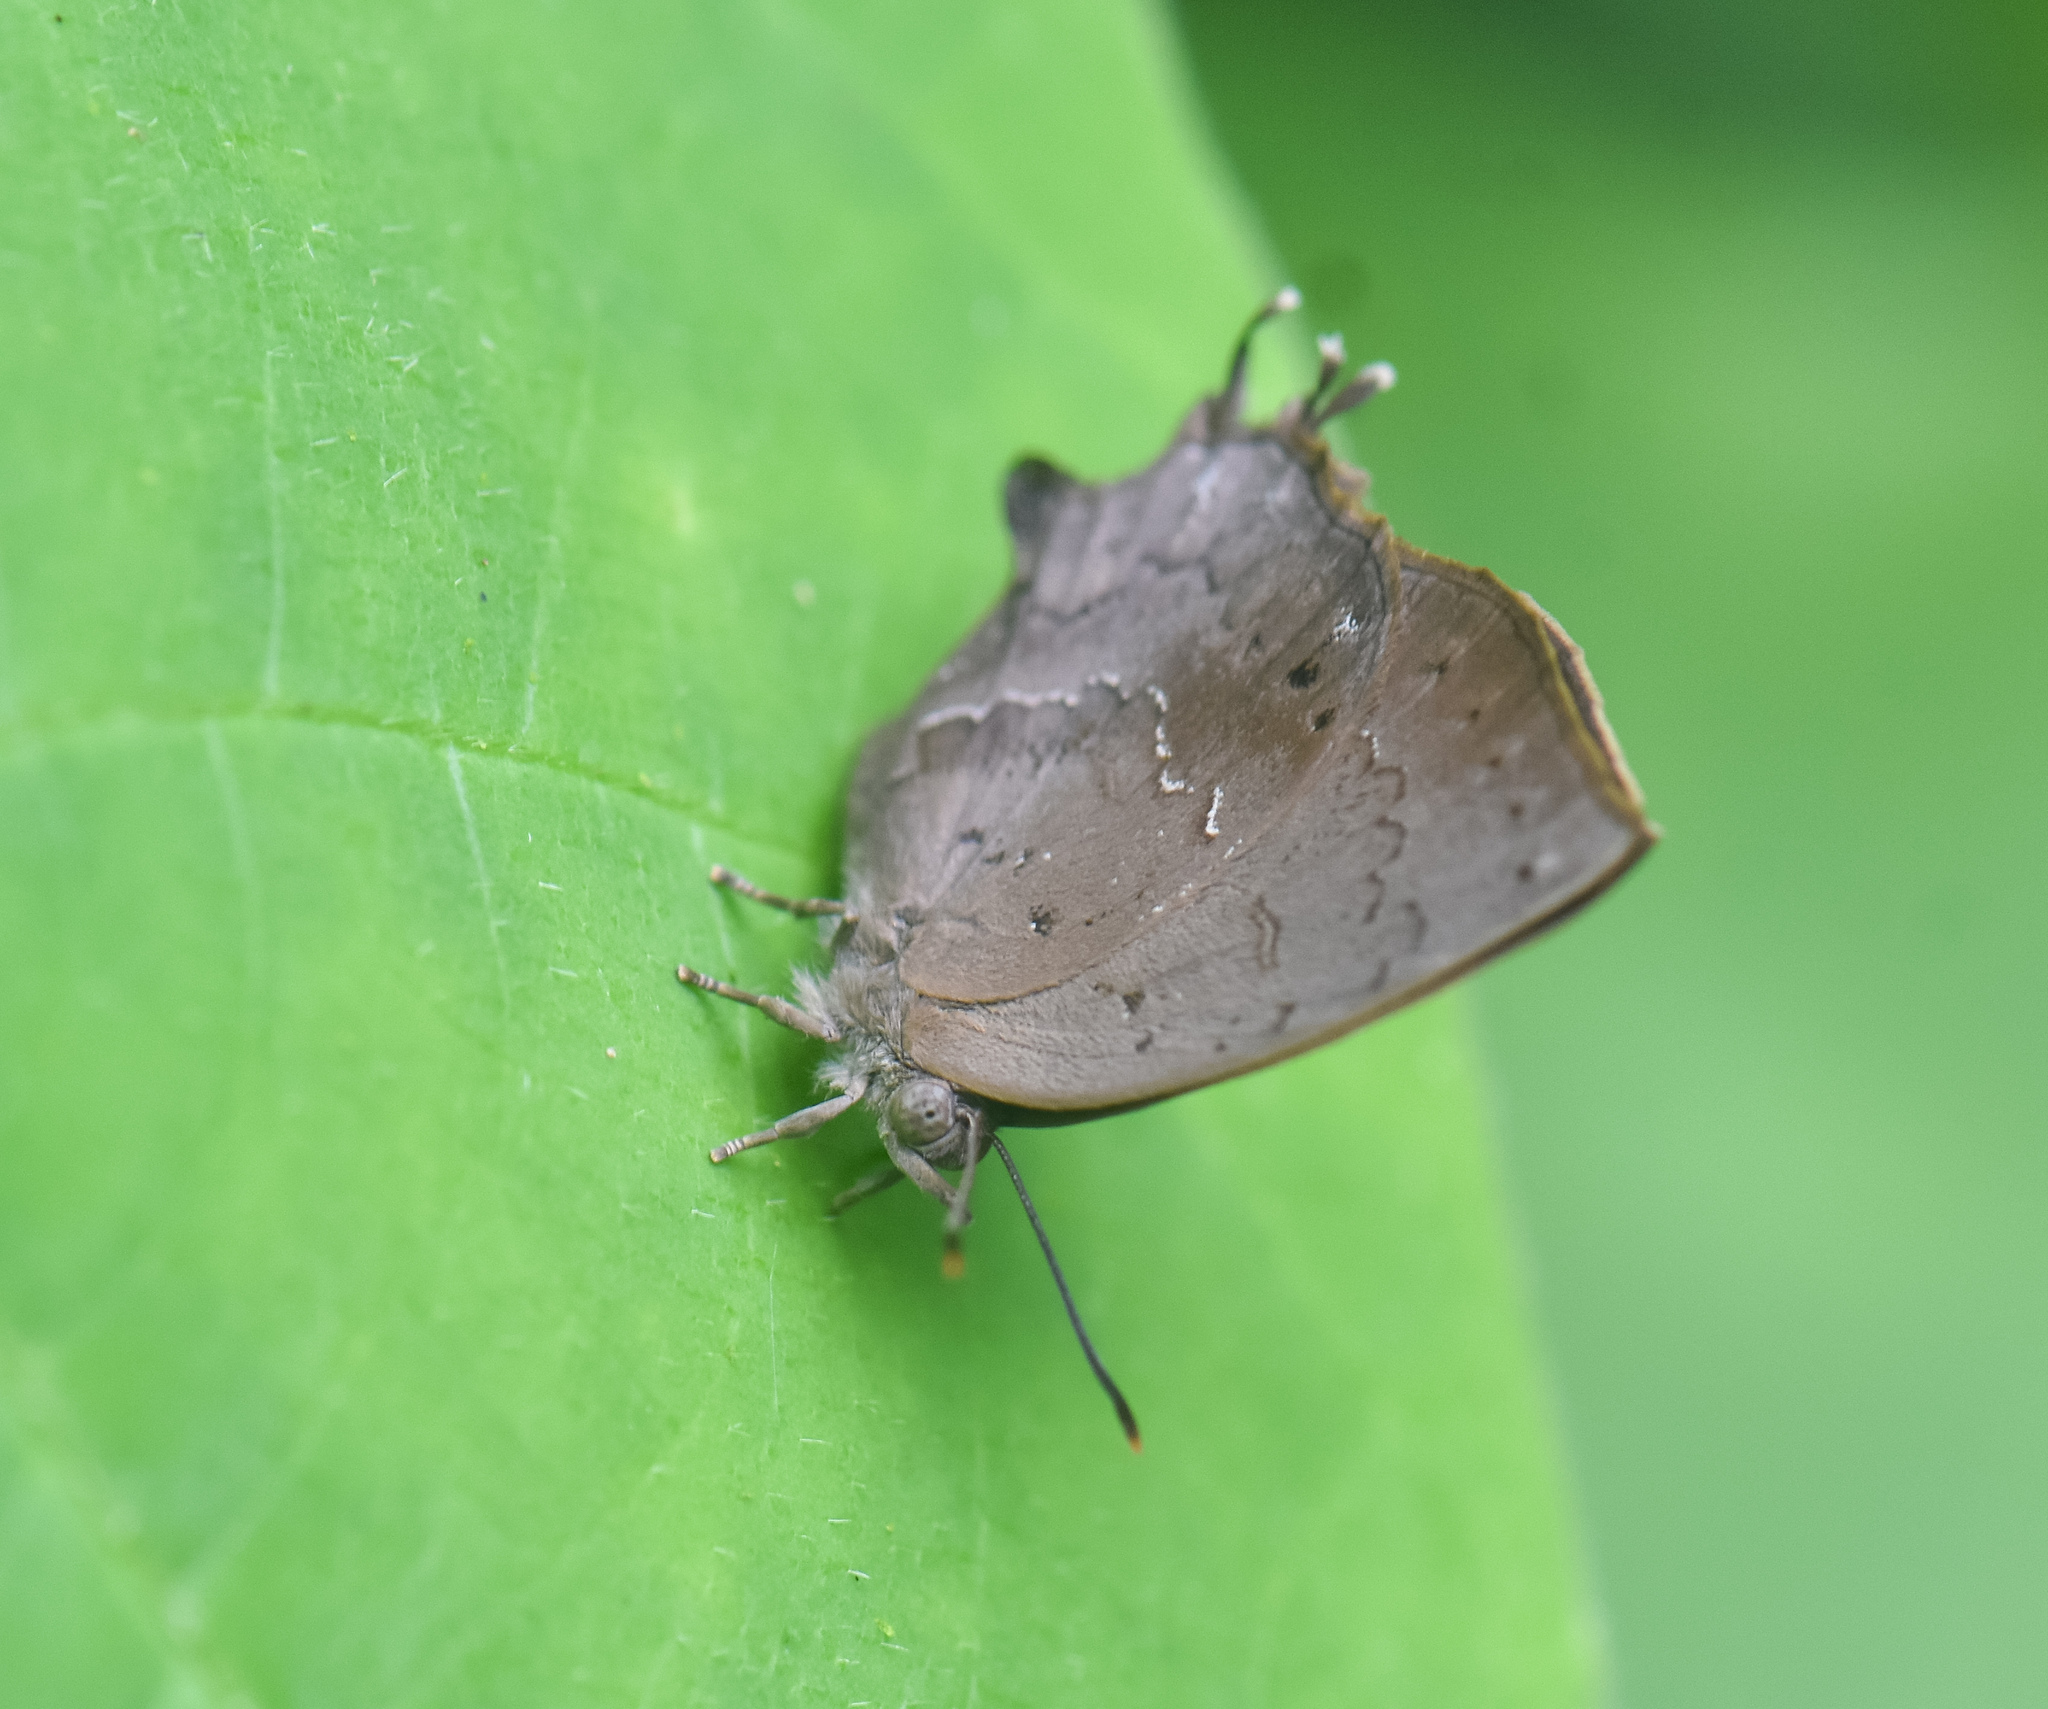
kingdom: Animalia
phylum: Arthropoda
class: Insecta
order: Lepidoptera
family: Lycaenidae
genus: Surendra
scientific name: Surendra quercetorum
